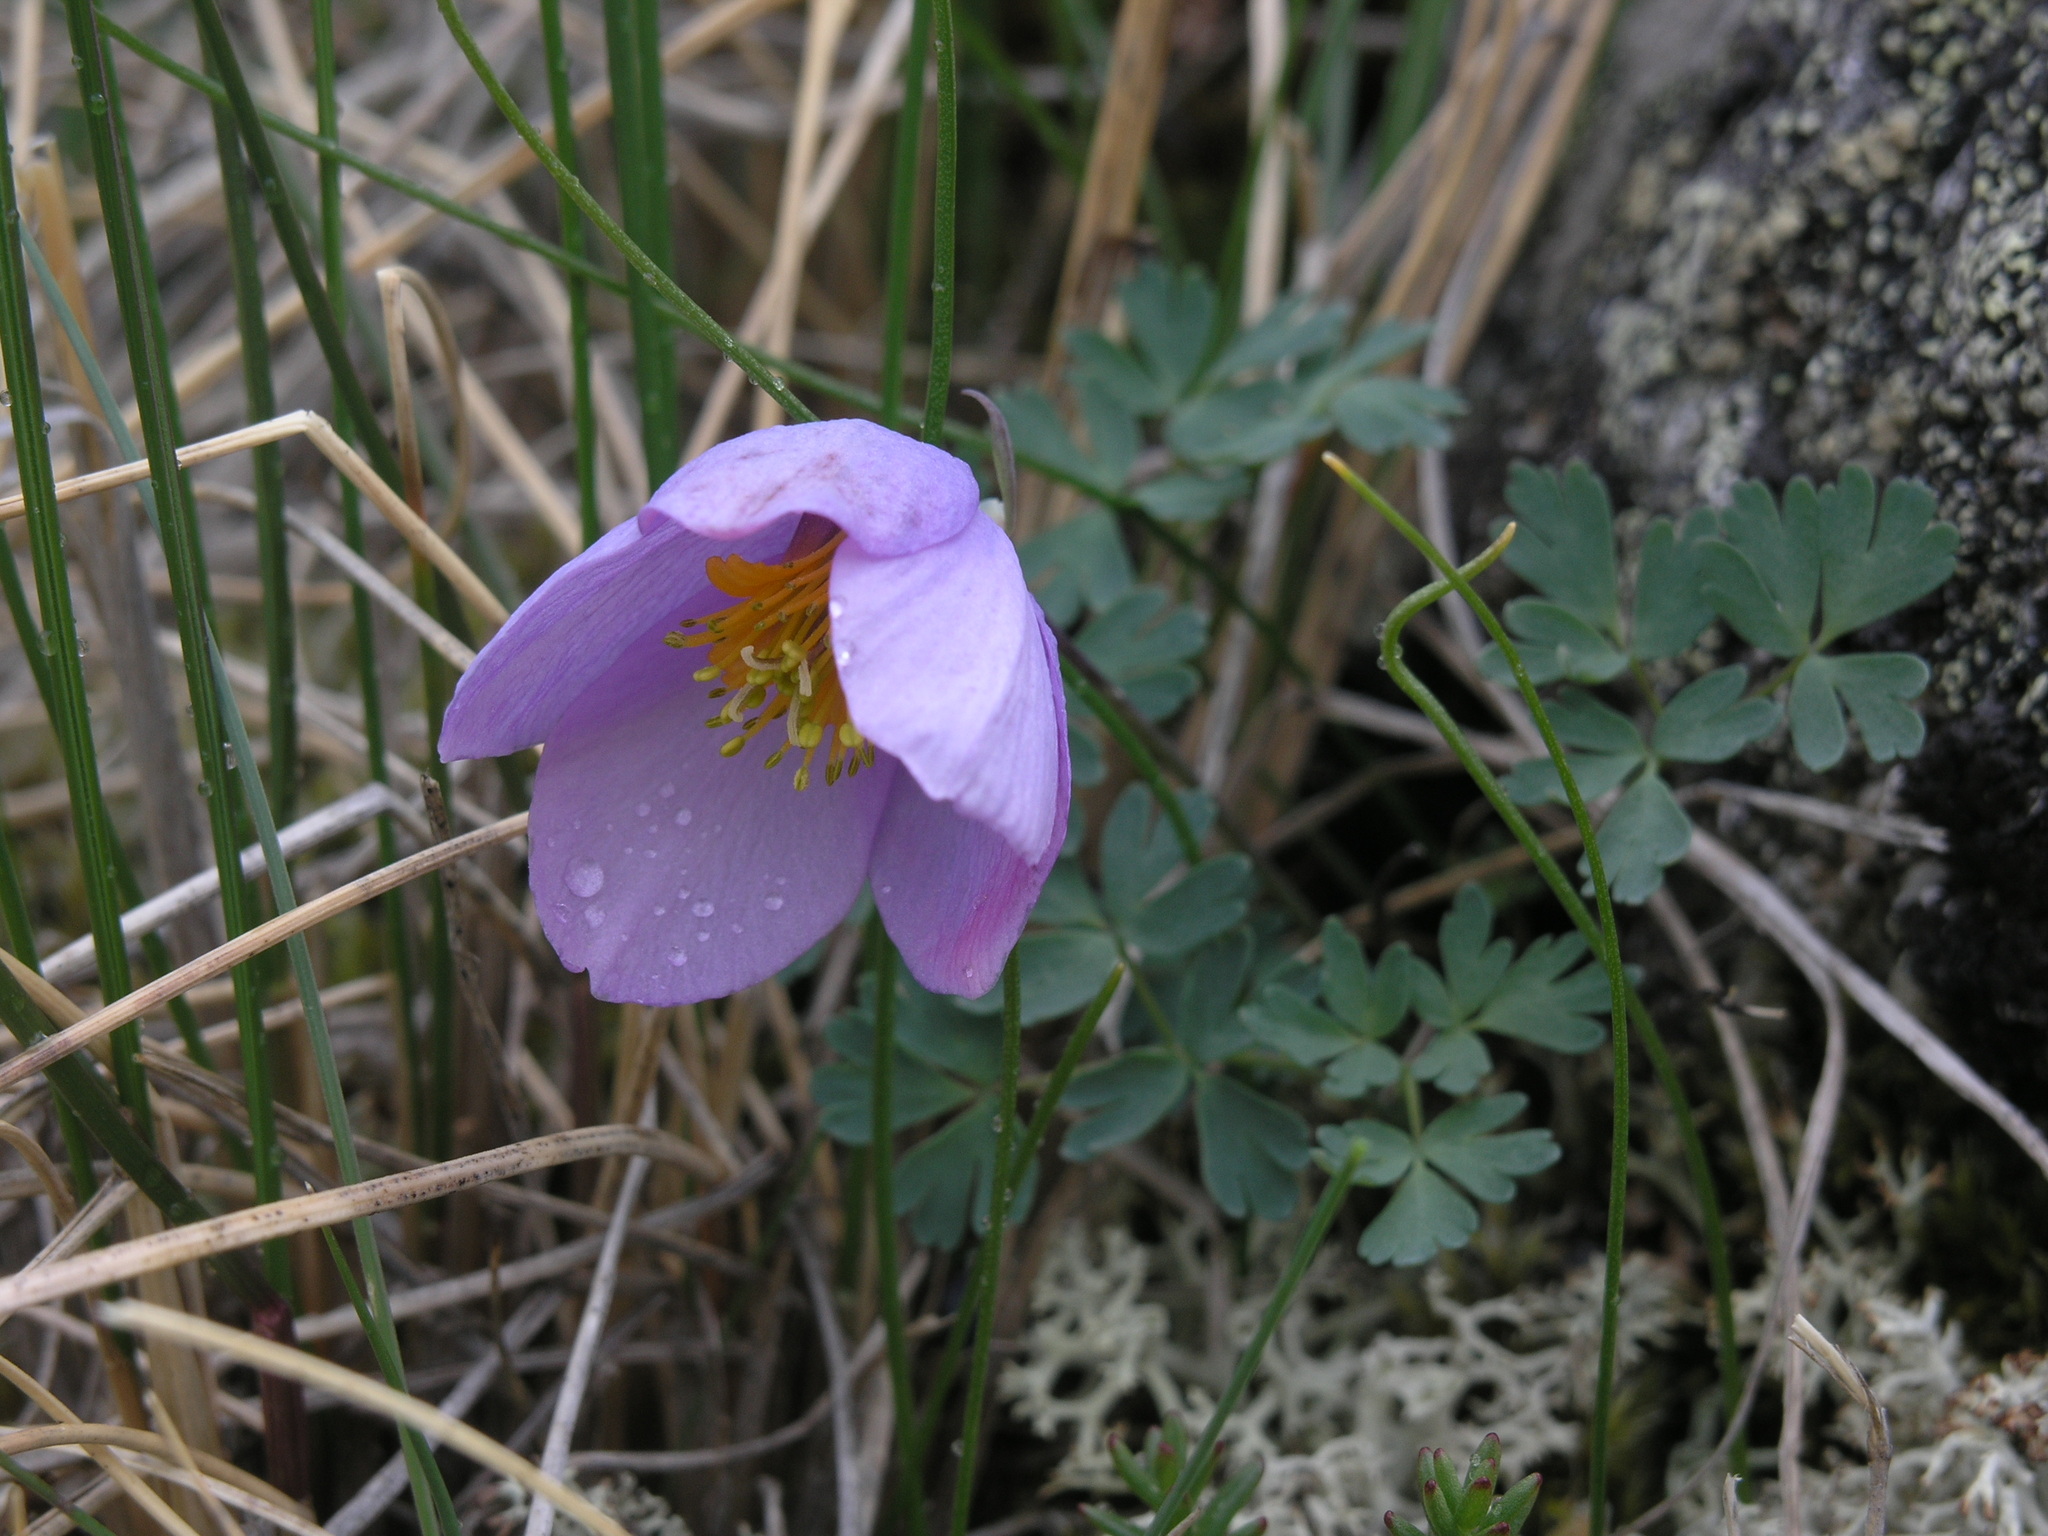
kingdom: Plantae
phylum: Tracheophyta
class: Magnoliopsida
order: Ranunculales
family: Ranunculaceae
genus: Paraquilegia
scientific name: Paraquilegia microphylla
